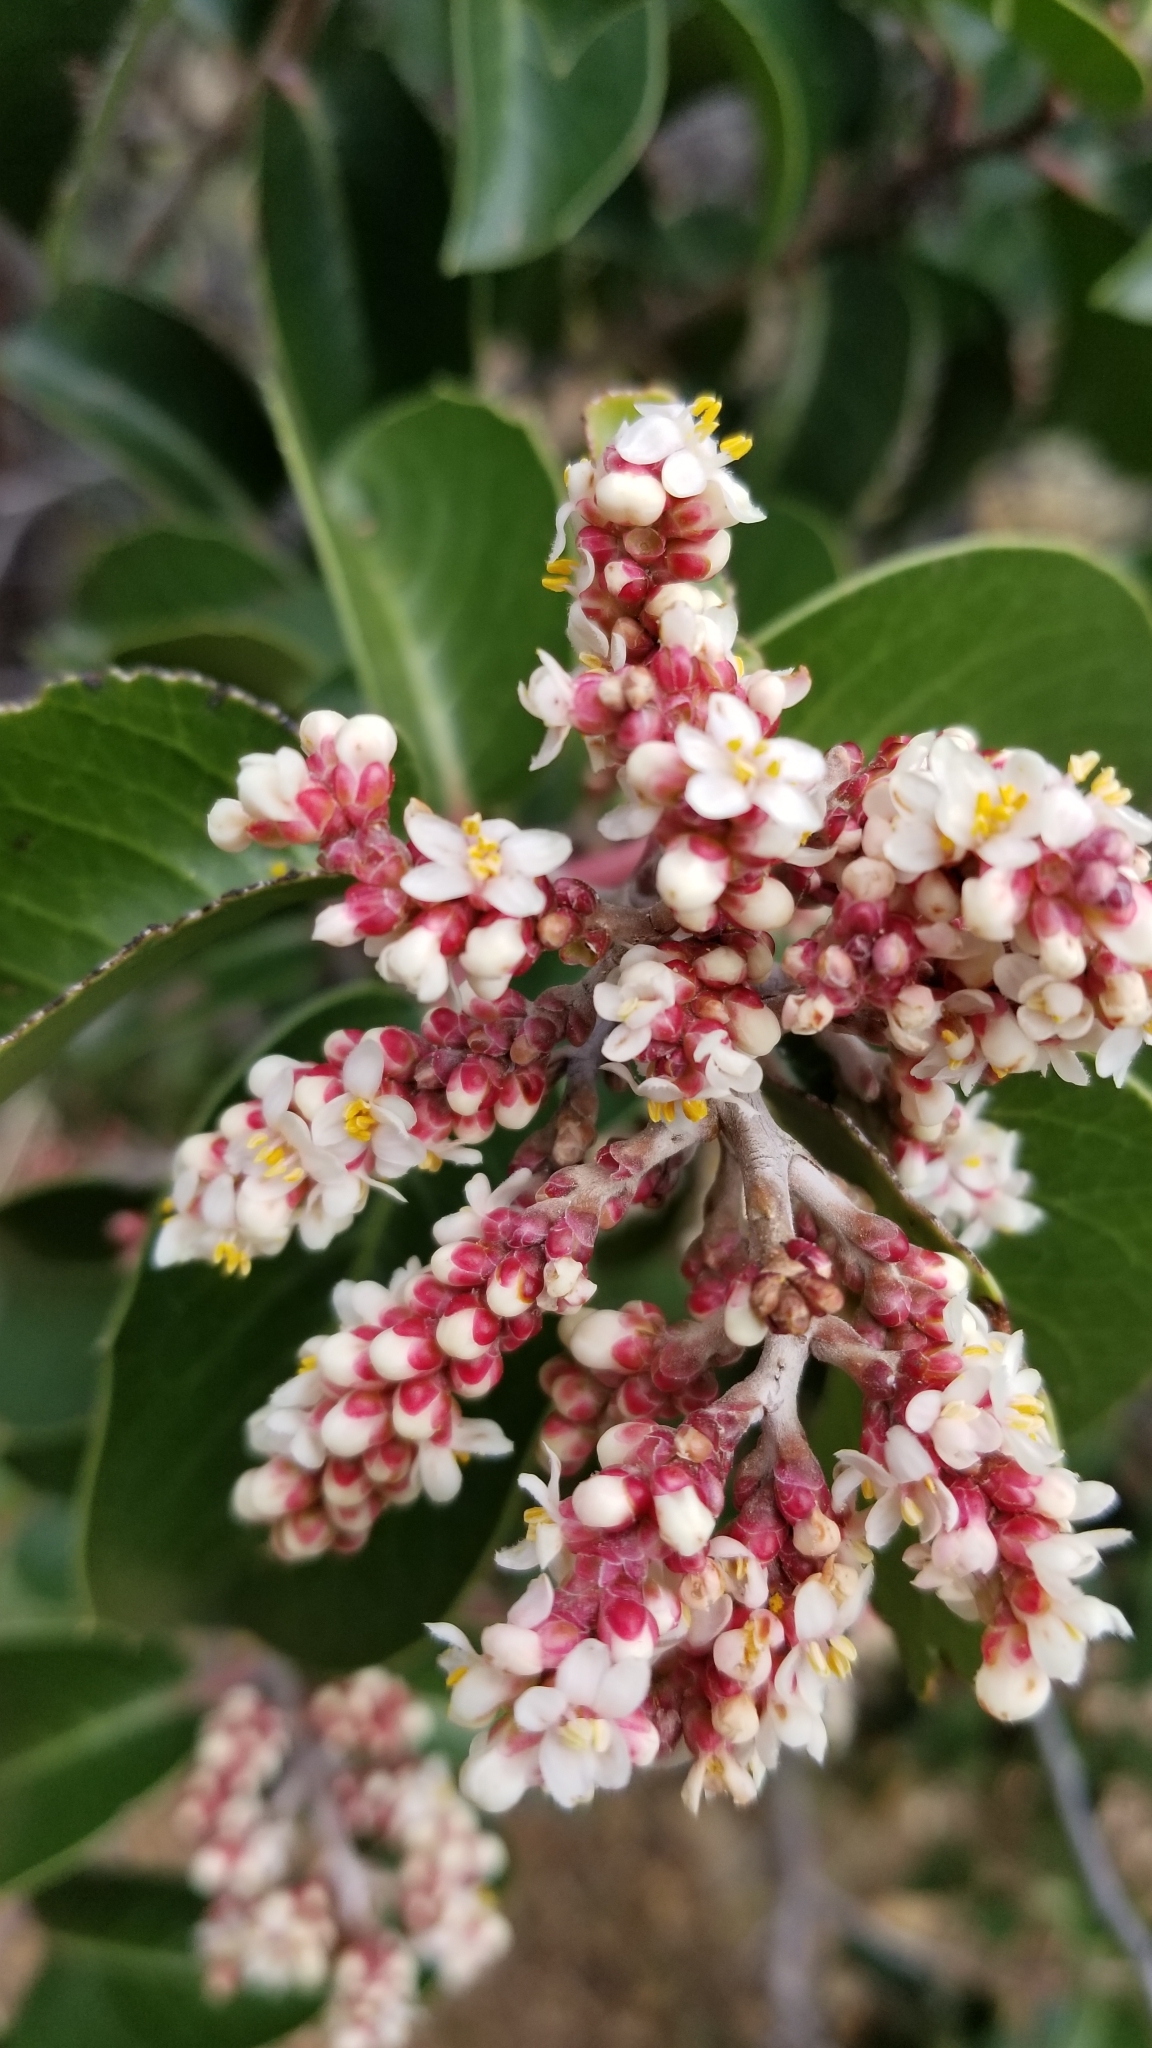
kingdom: Plantae
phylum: Tracheophyta
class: Magnoliopsida
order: Sapindales
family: Anacardiaceae
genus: Rhus
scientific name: Rhus ovata
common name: Sugar sumac
